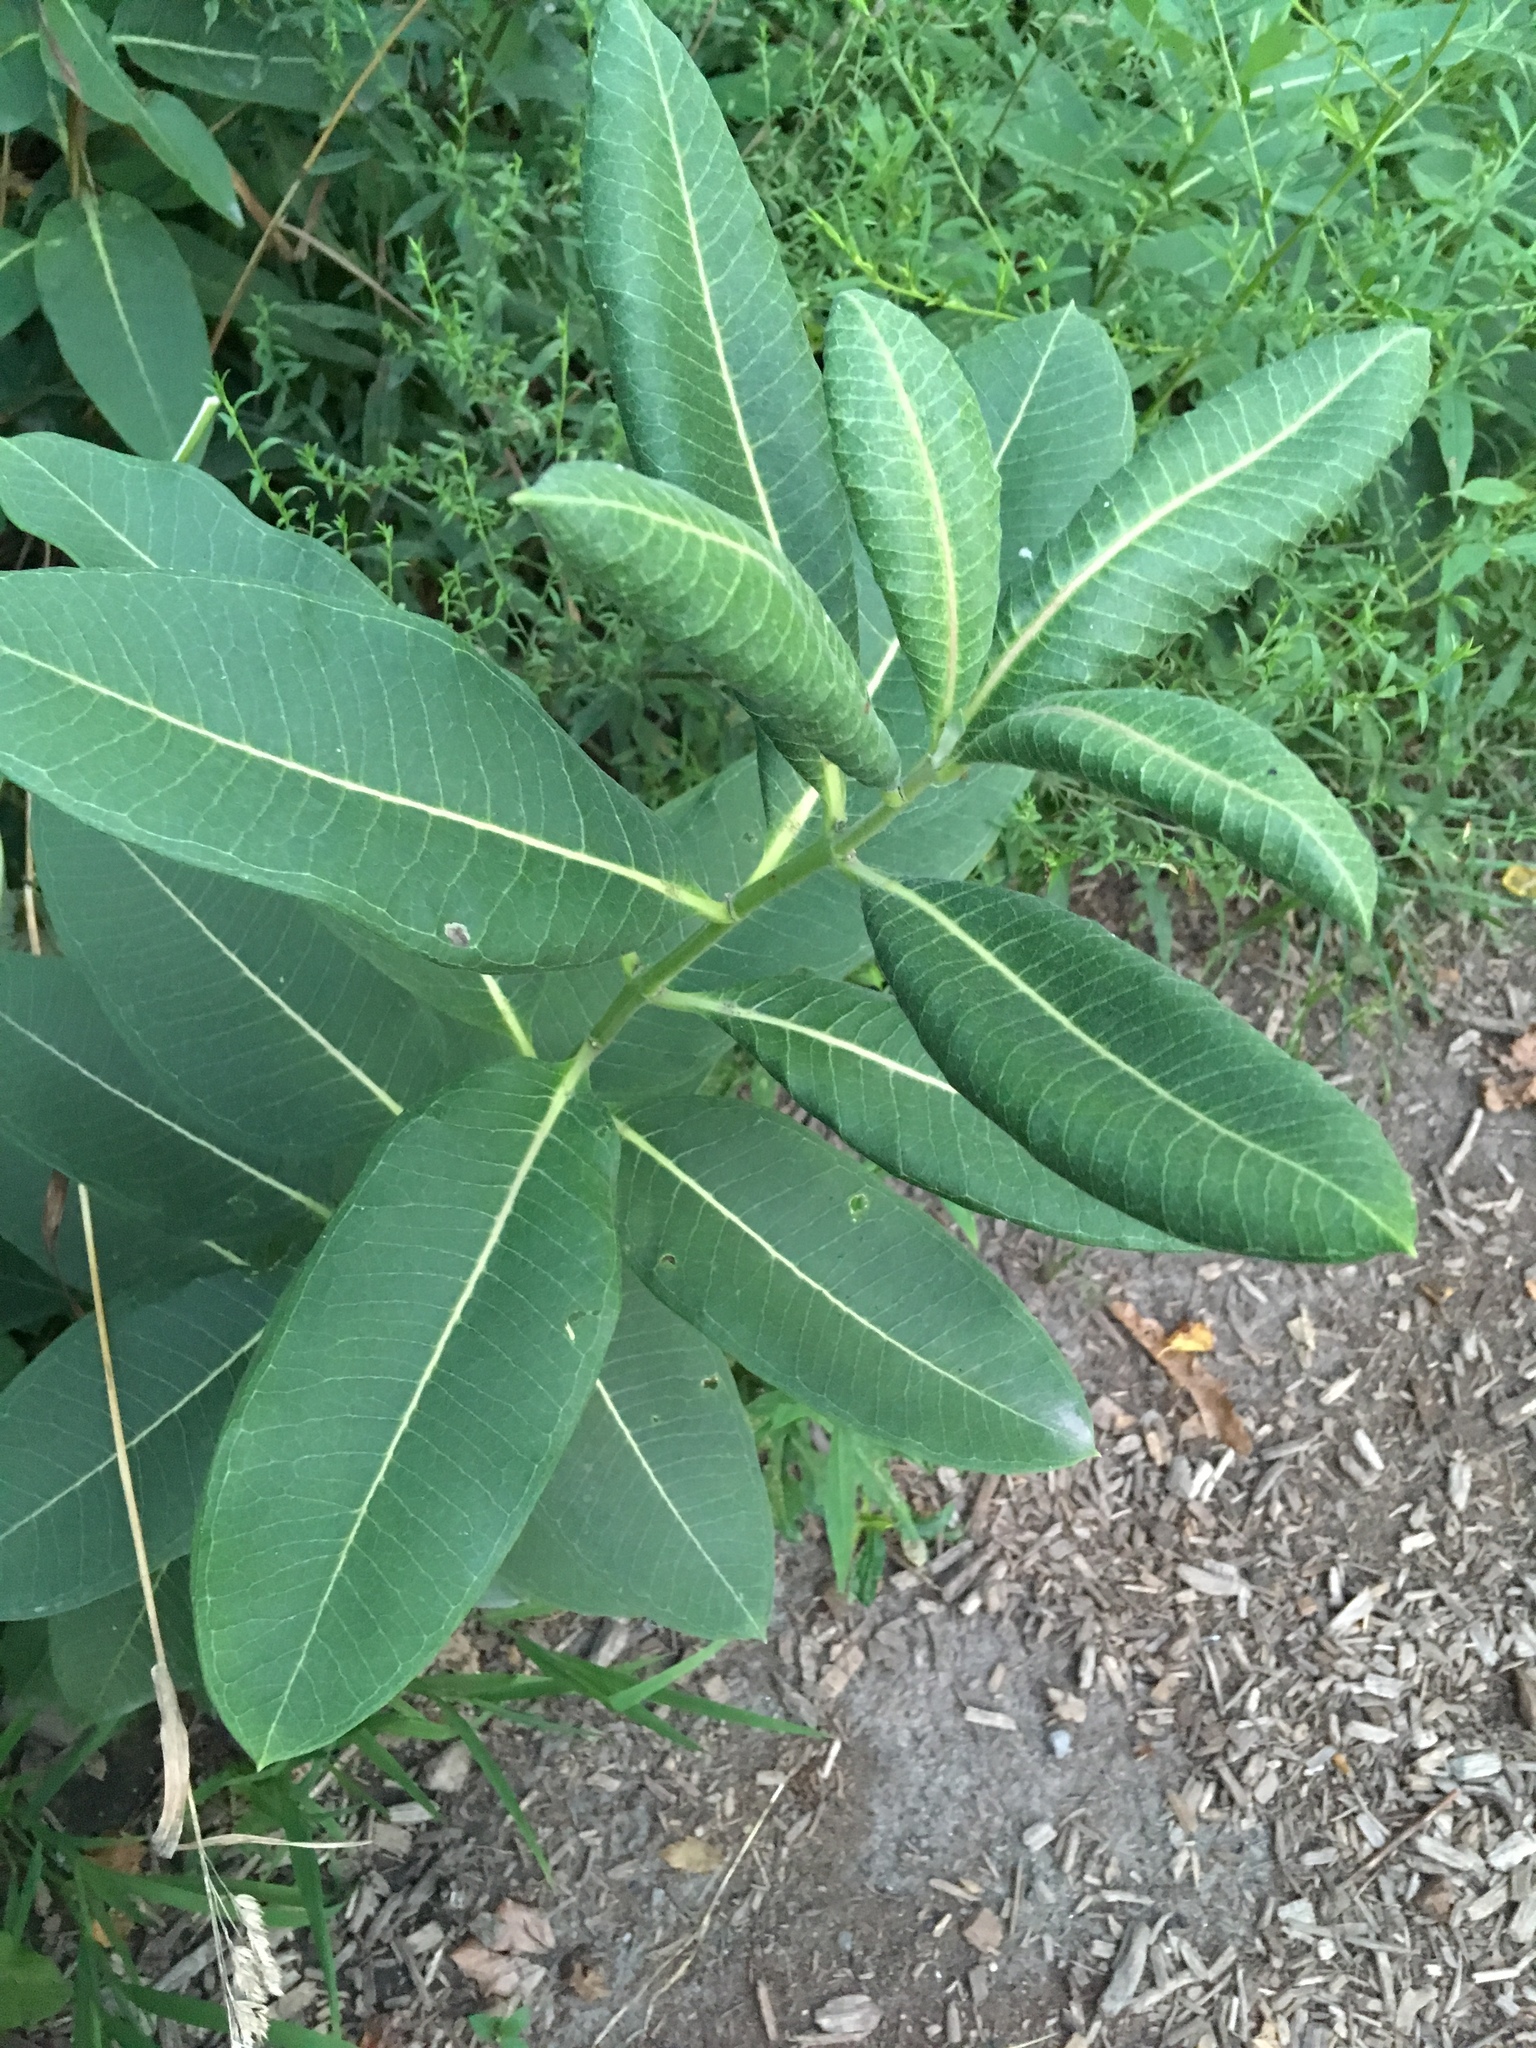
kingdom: Plantae
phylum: Tracheophyta
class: Magnoliopsida
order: Gentianales
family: Apocynaceae
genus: Asclepias
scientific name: Asclepias syriaca
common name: Common milkweed
